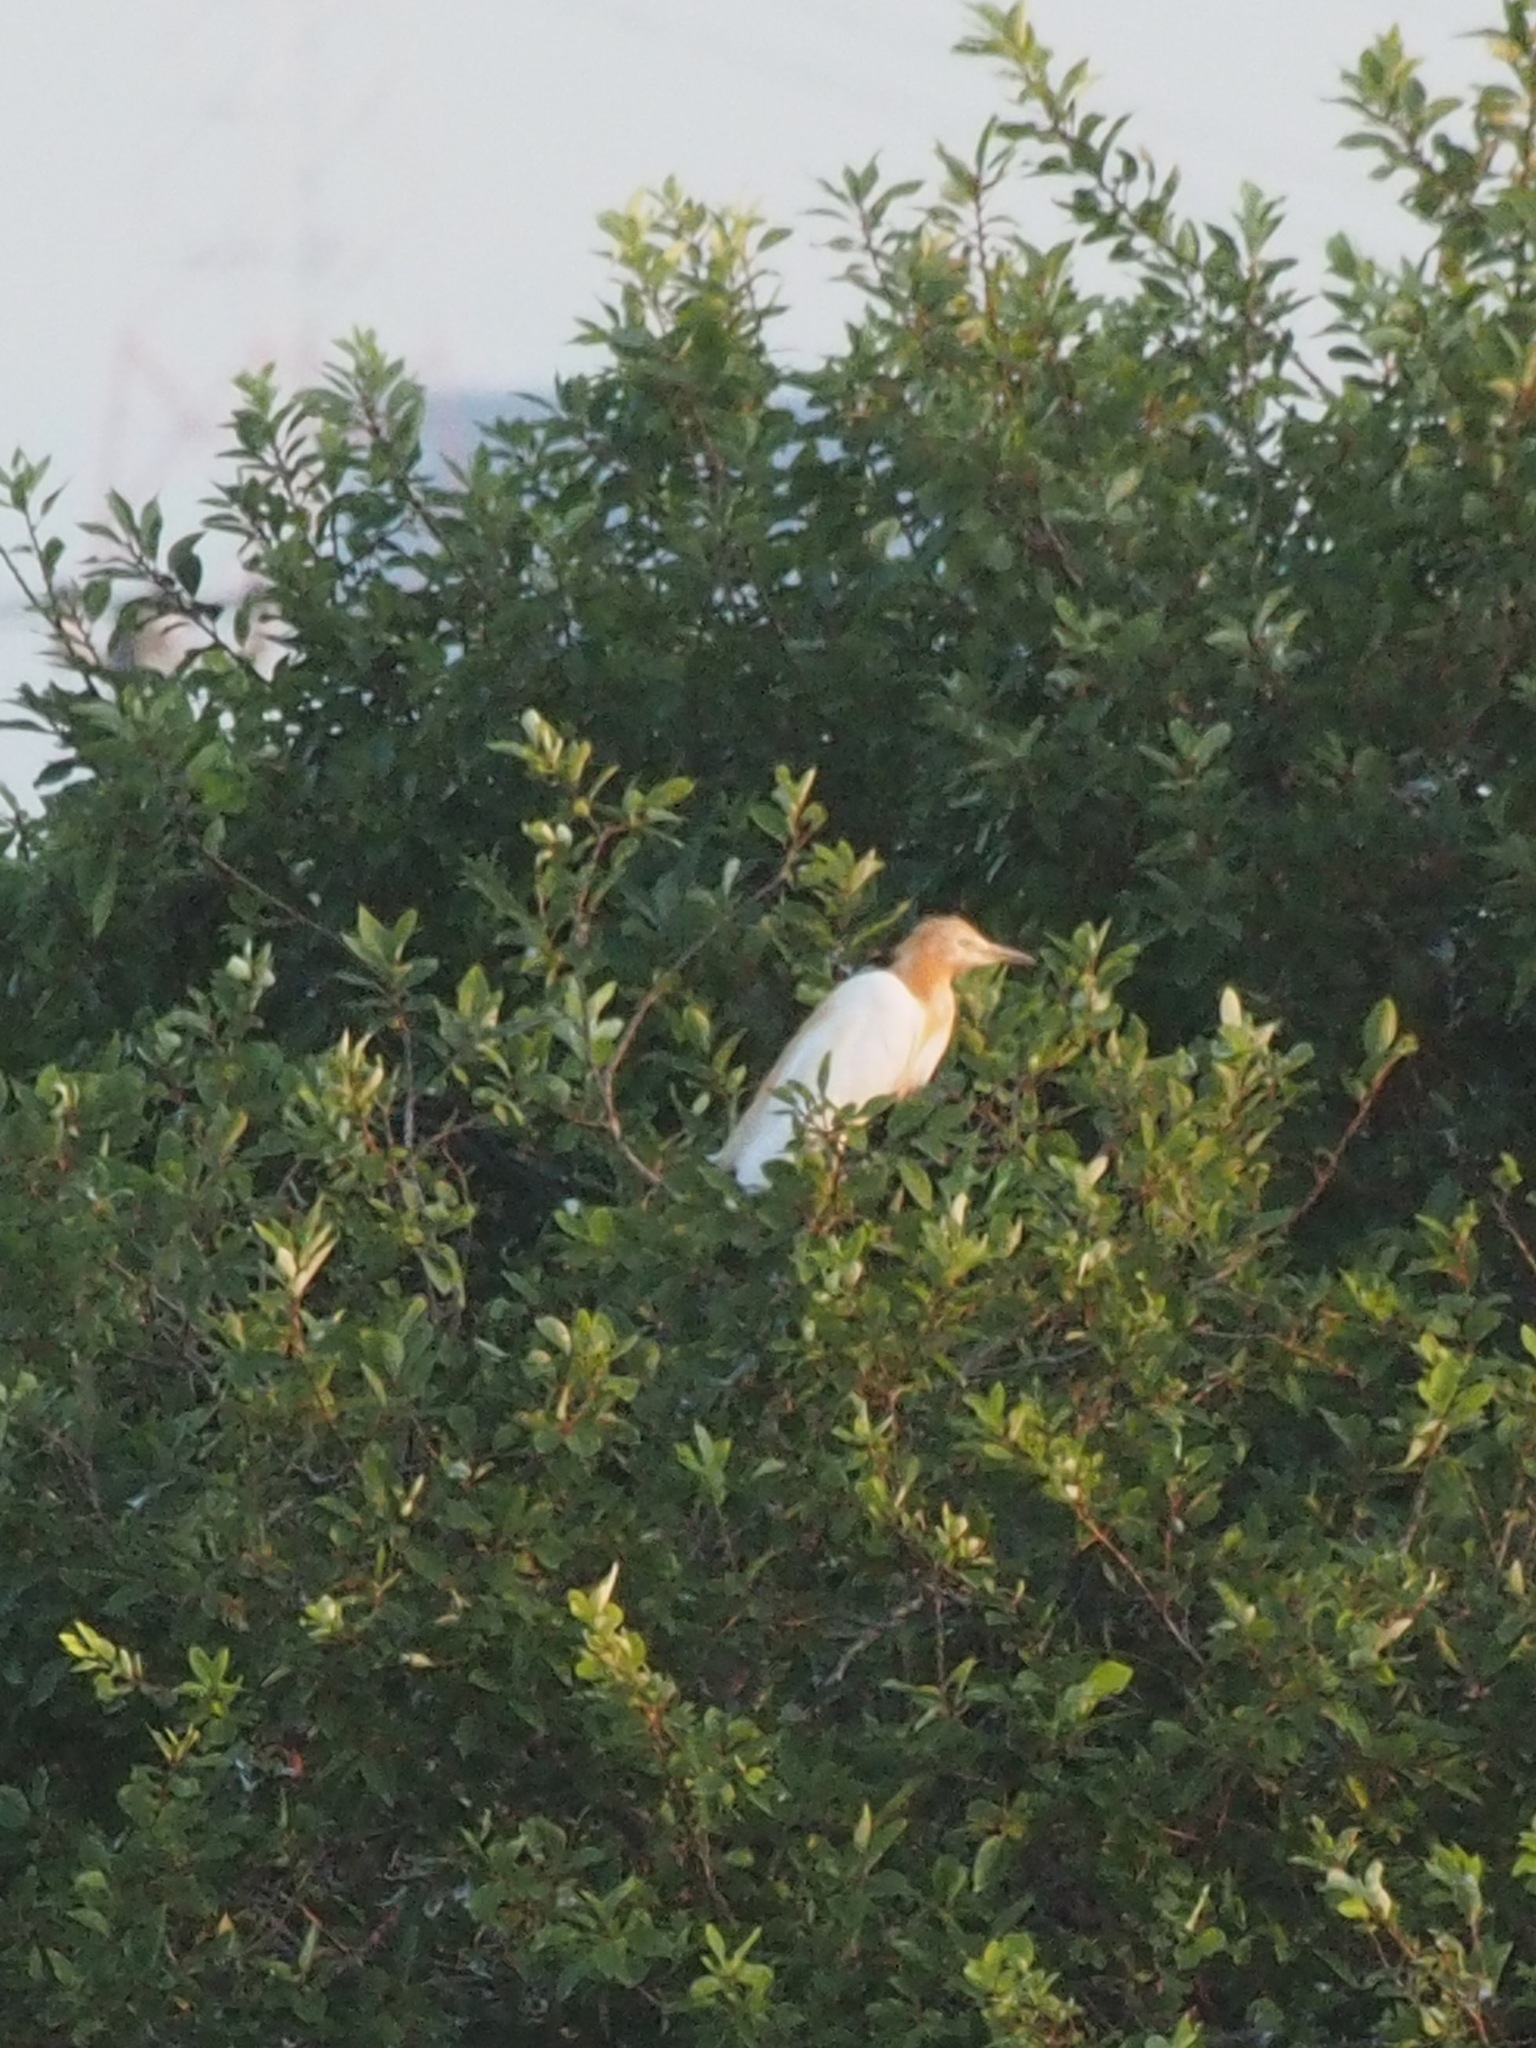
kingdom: Animalia
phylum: Chordata
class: Aves
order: Pelecaniformes
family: Ardeidae
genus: Bubulcus
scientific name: Bubulcus coromandus
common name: Eastern cattle egret
